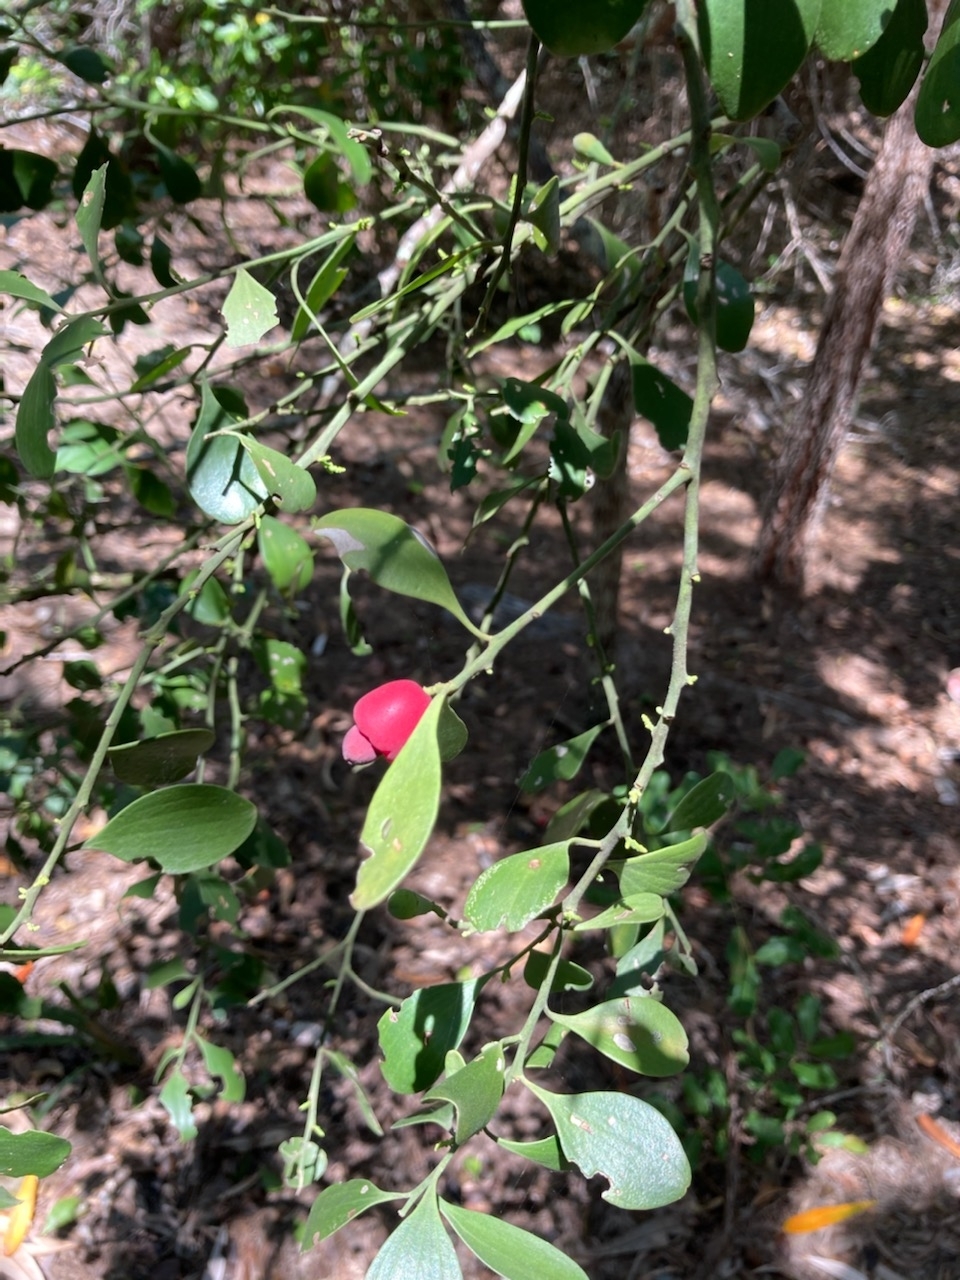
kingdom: Plantae
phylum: Tracheophyta
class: Magnoliopsida
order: Santalales
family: Santalaceae
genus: Exocarpos
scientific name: Exocarpos latifolius
